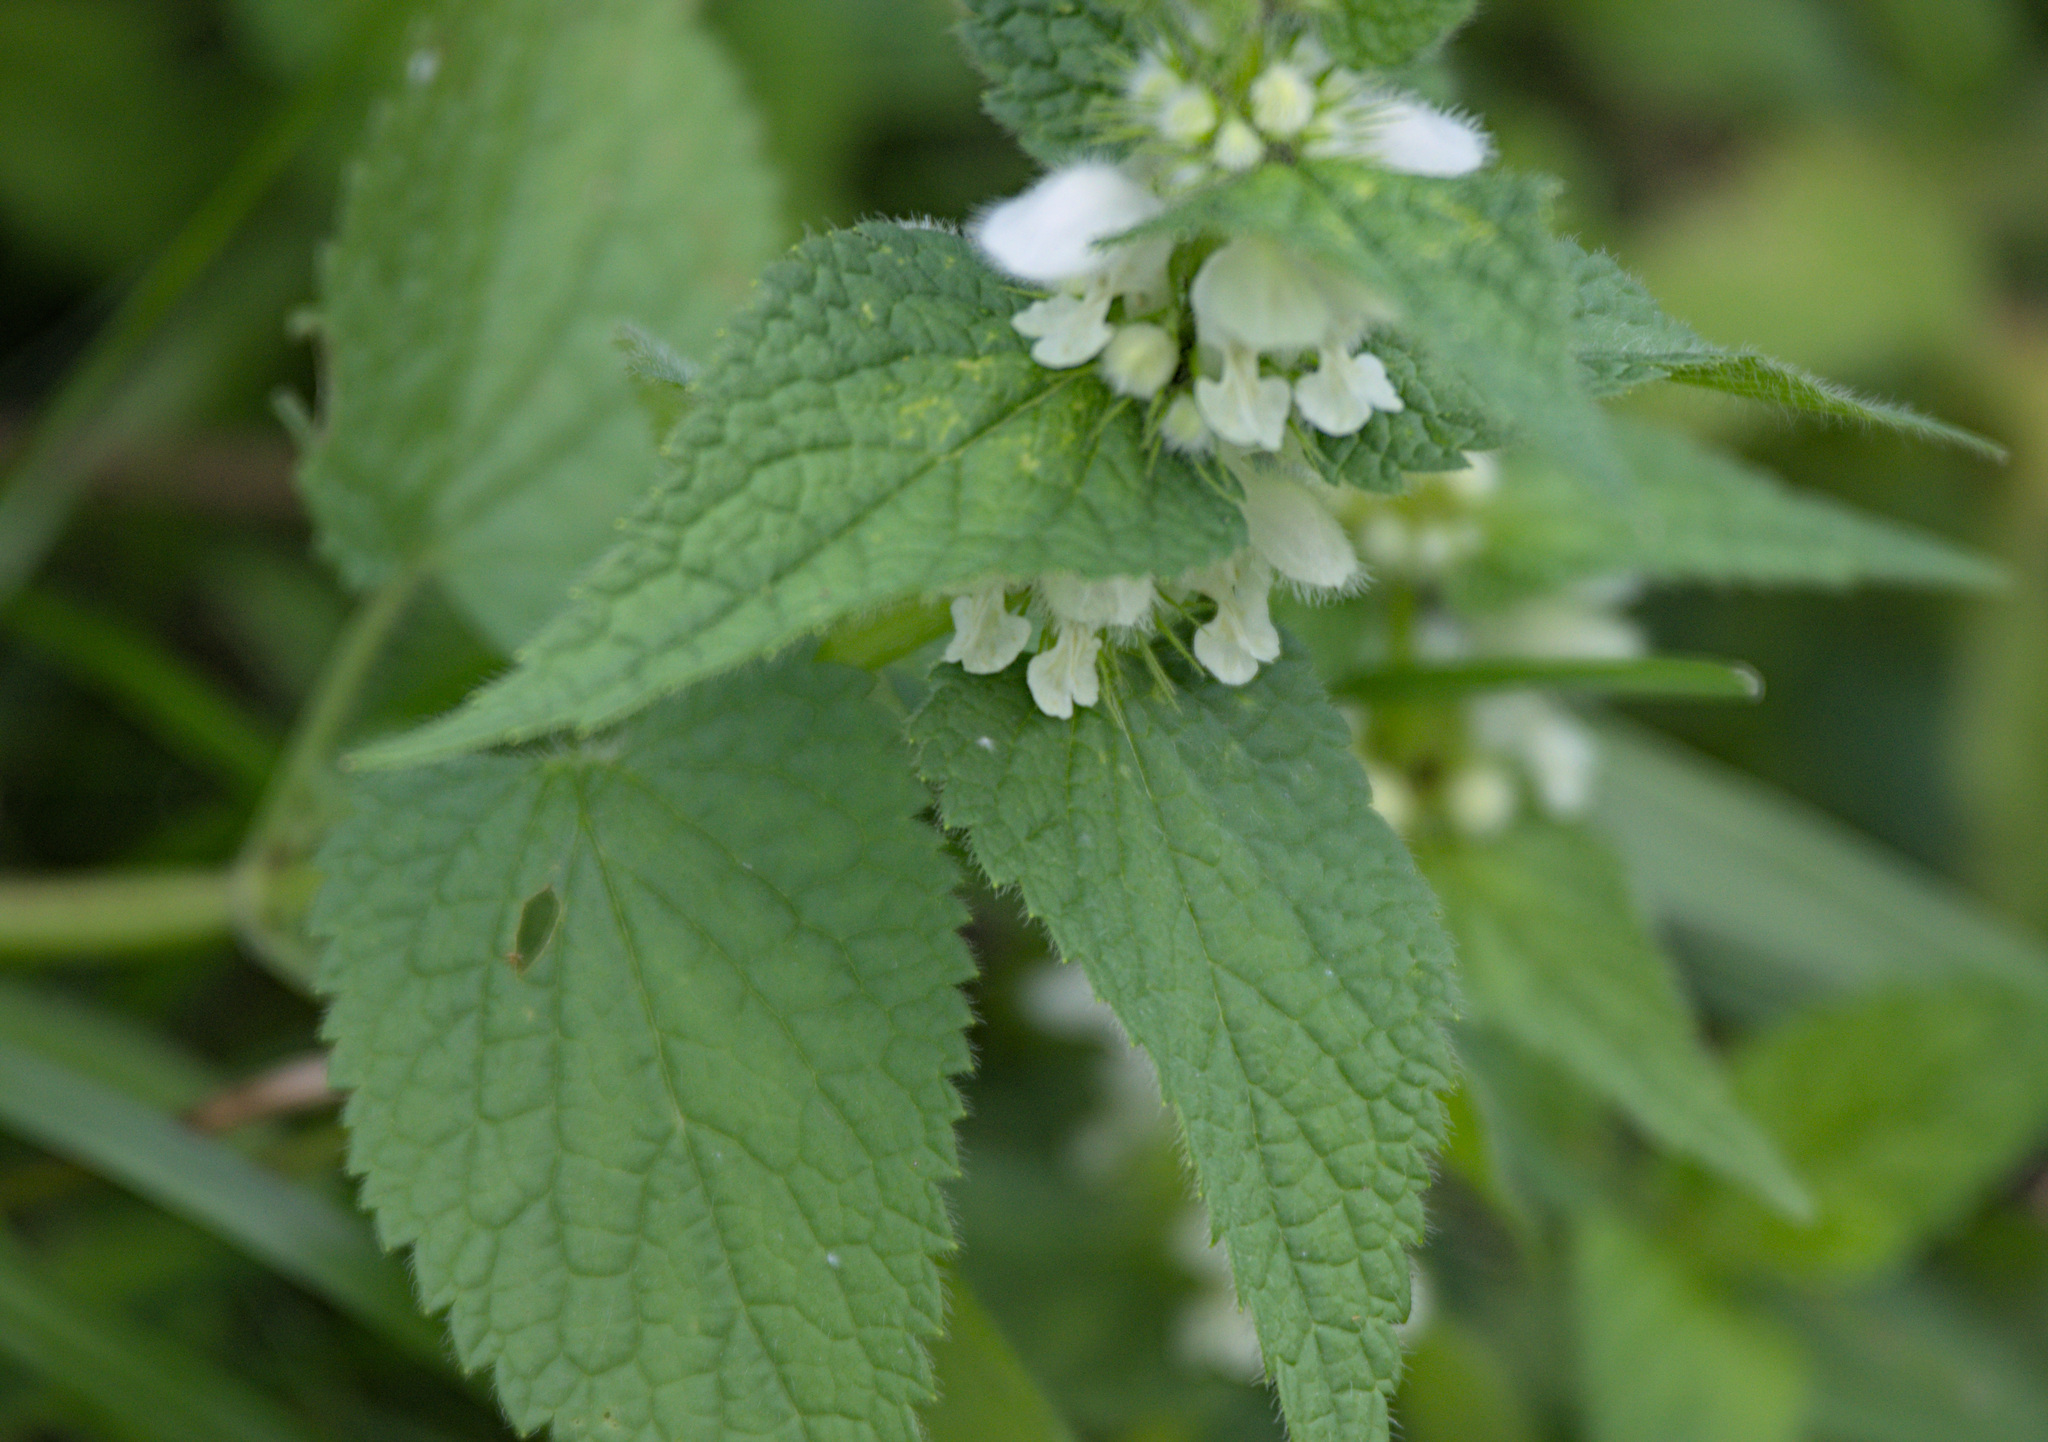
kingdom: Plantae
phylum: Tracheophyta
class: Magnoliopsida
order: Lamiales
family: Lamiaceae
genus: Lamium
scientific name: Lamium album
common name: White dead-nettle
